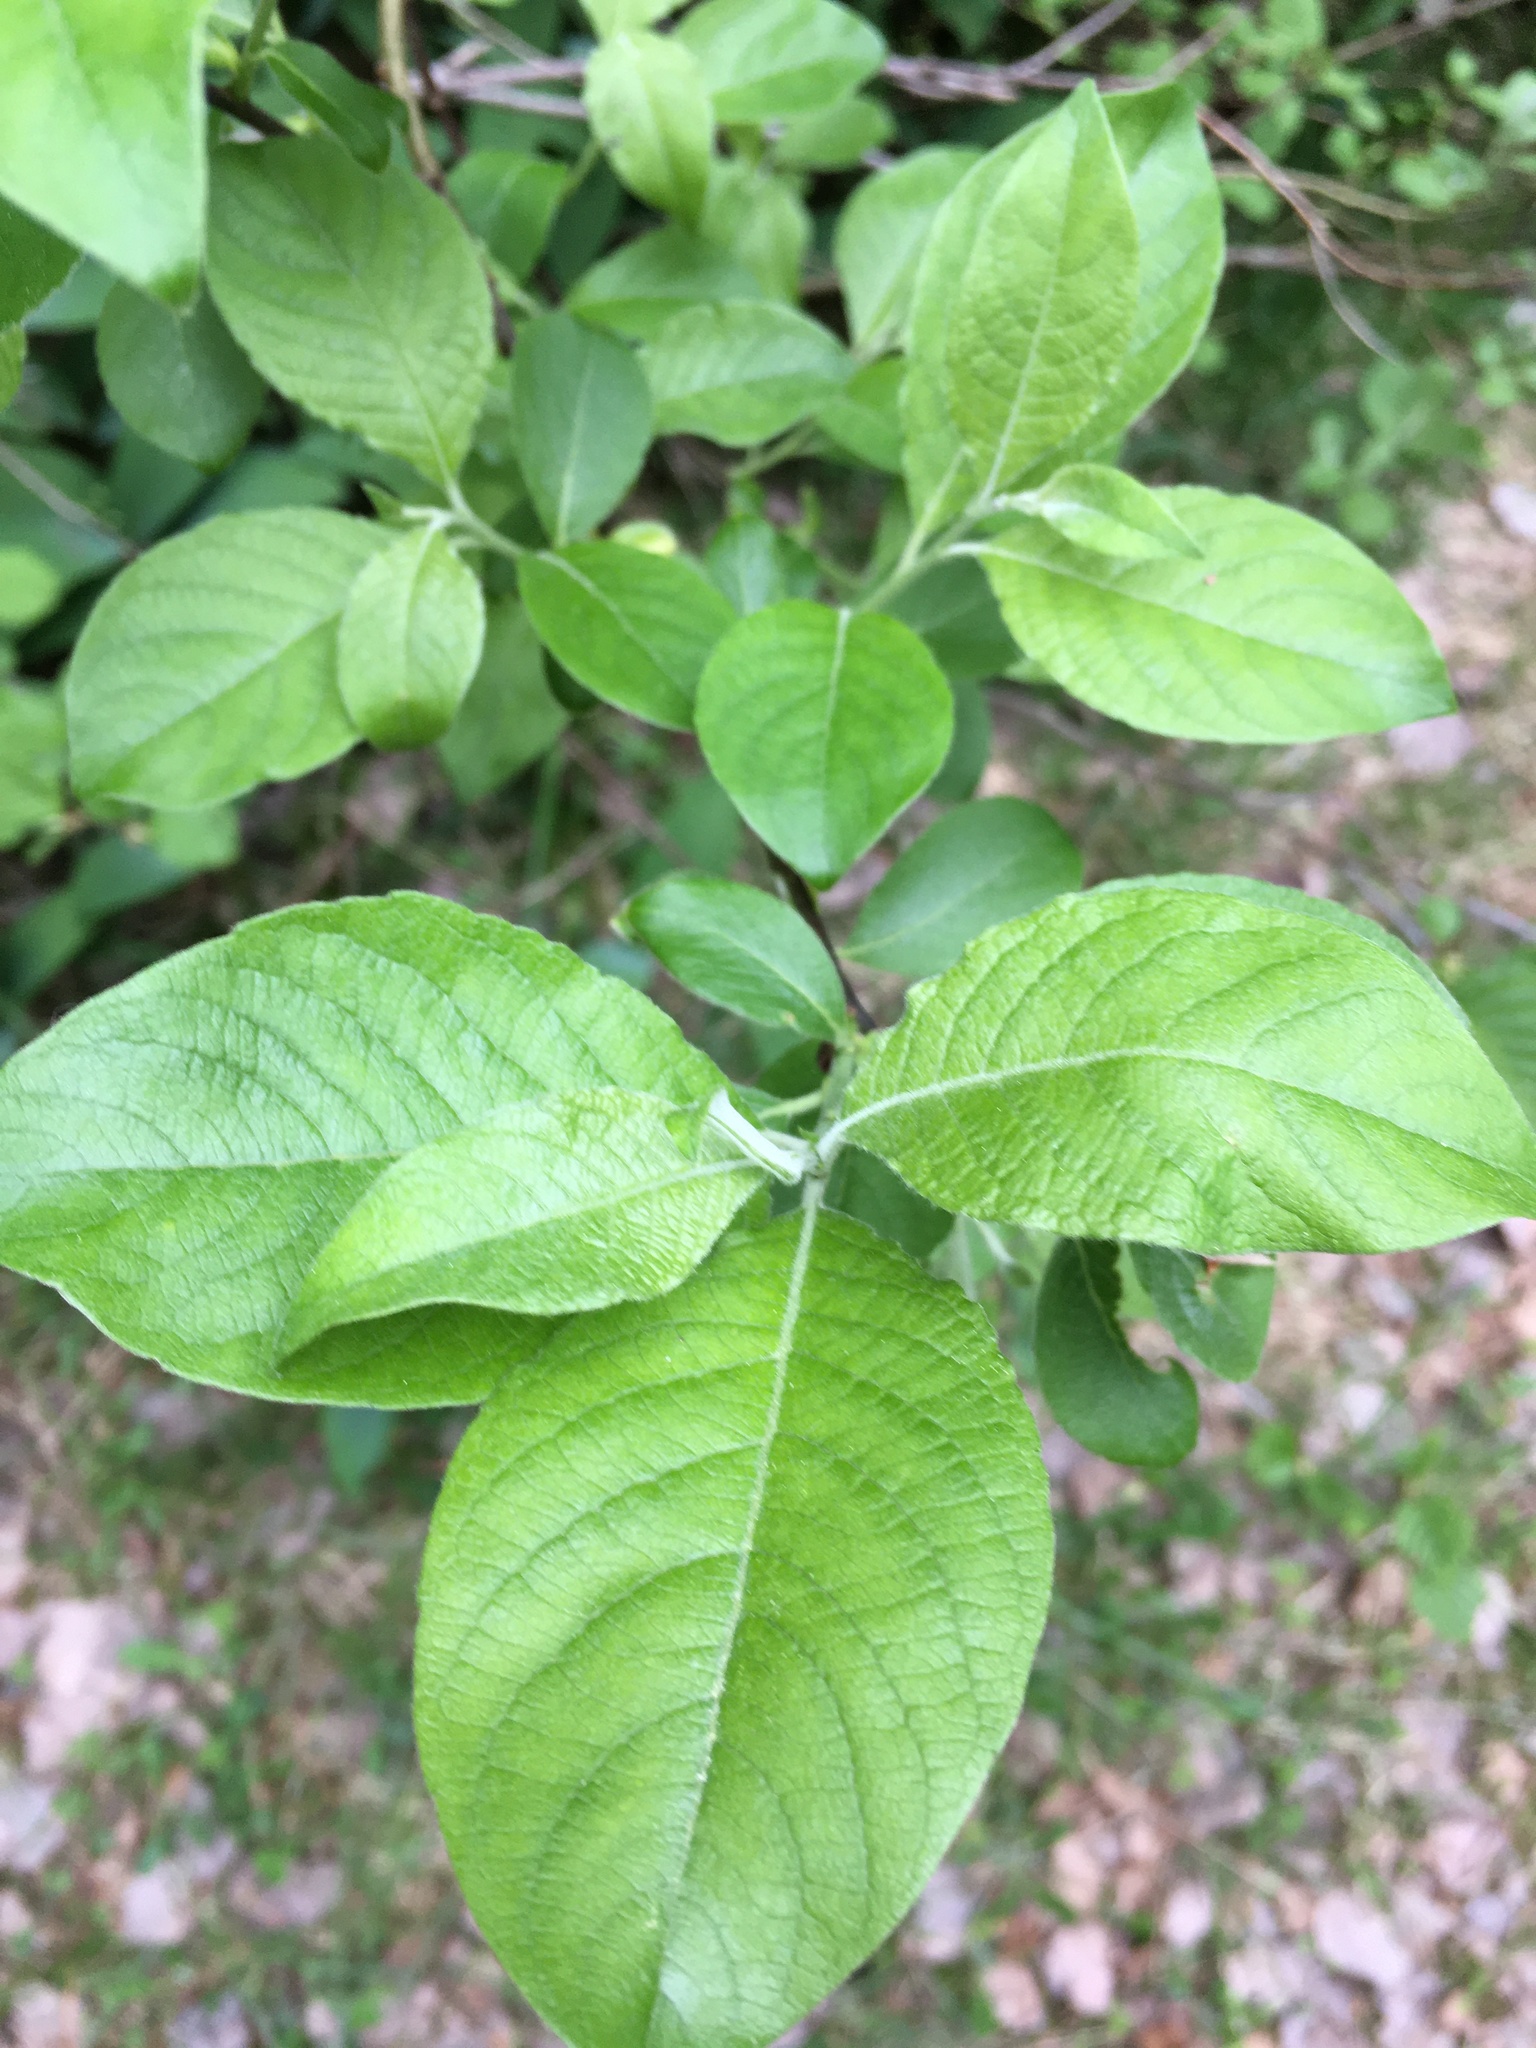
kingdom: Plantae
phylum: Tracheophyta
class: Magnoliopsida
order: Malpighiales
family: Salicaceae
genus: Salix
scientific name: Salix caprea
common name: Goat willow
